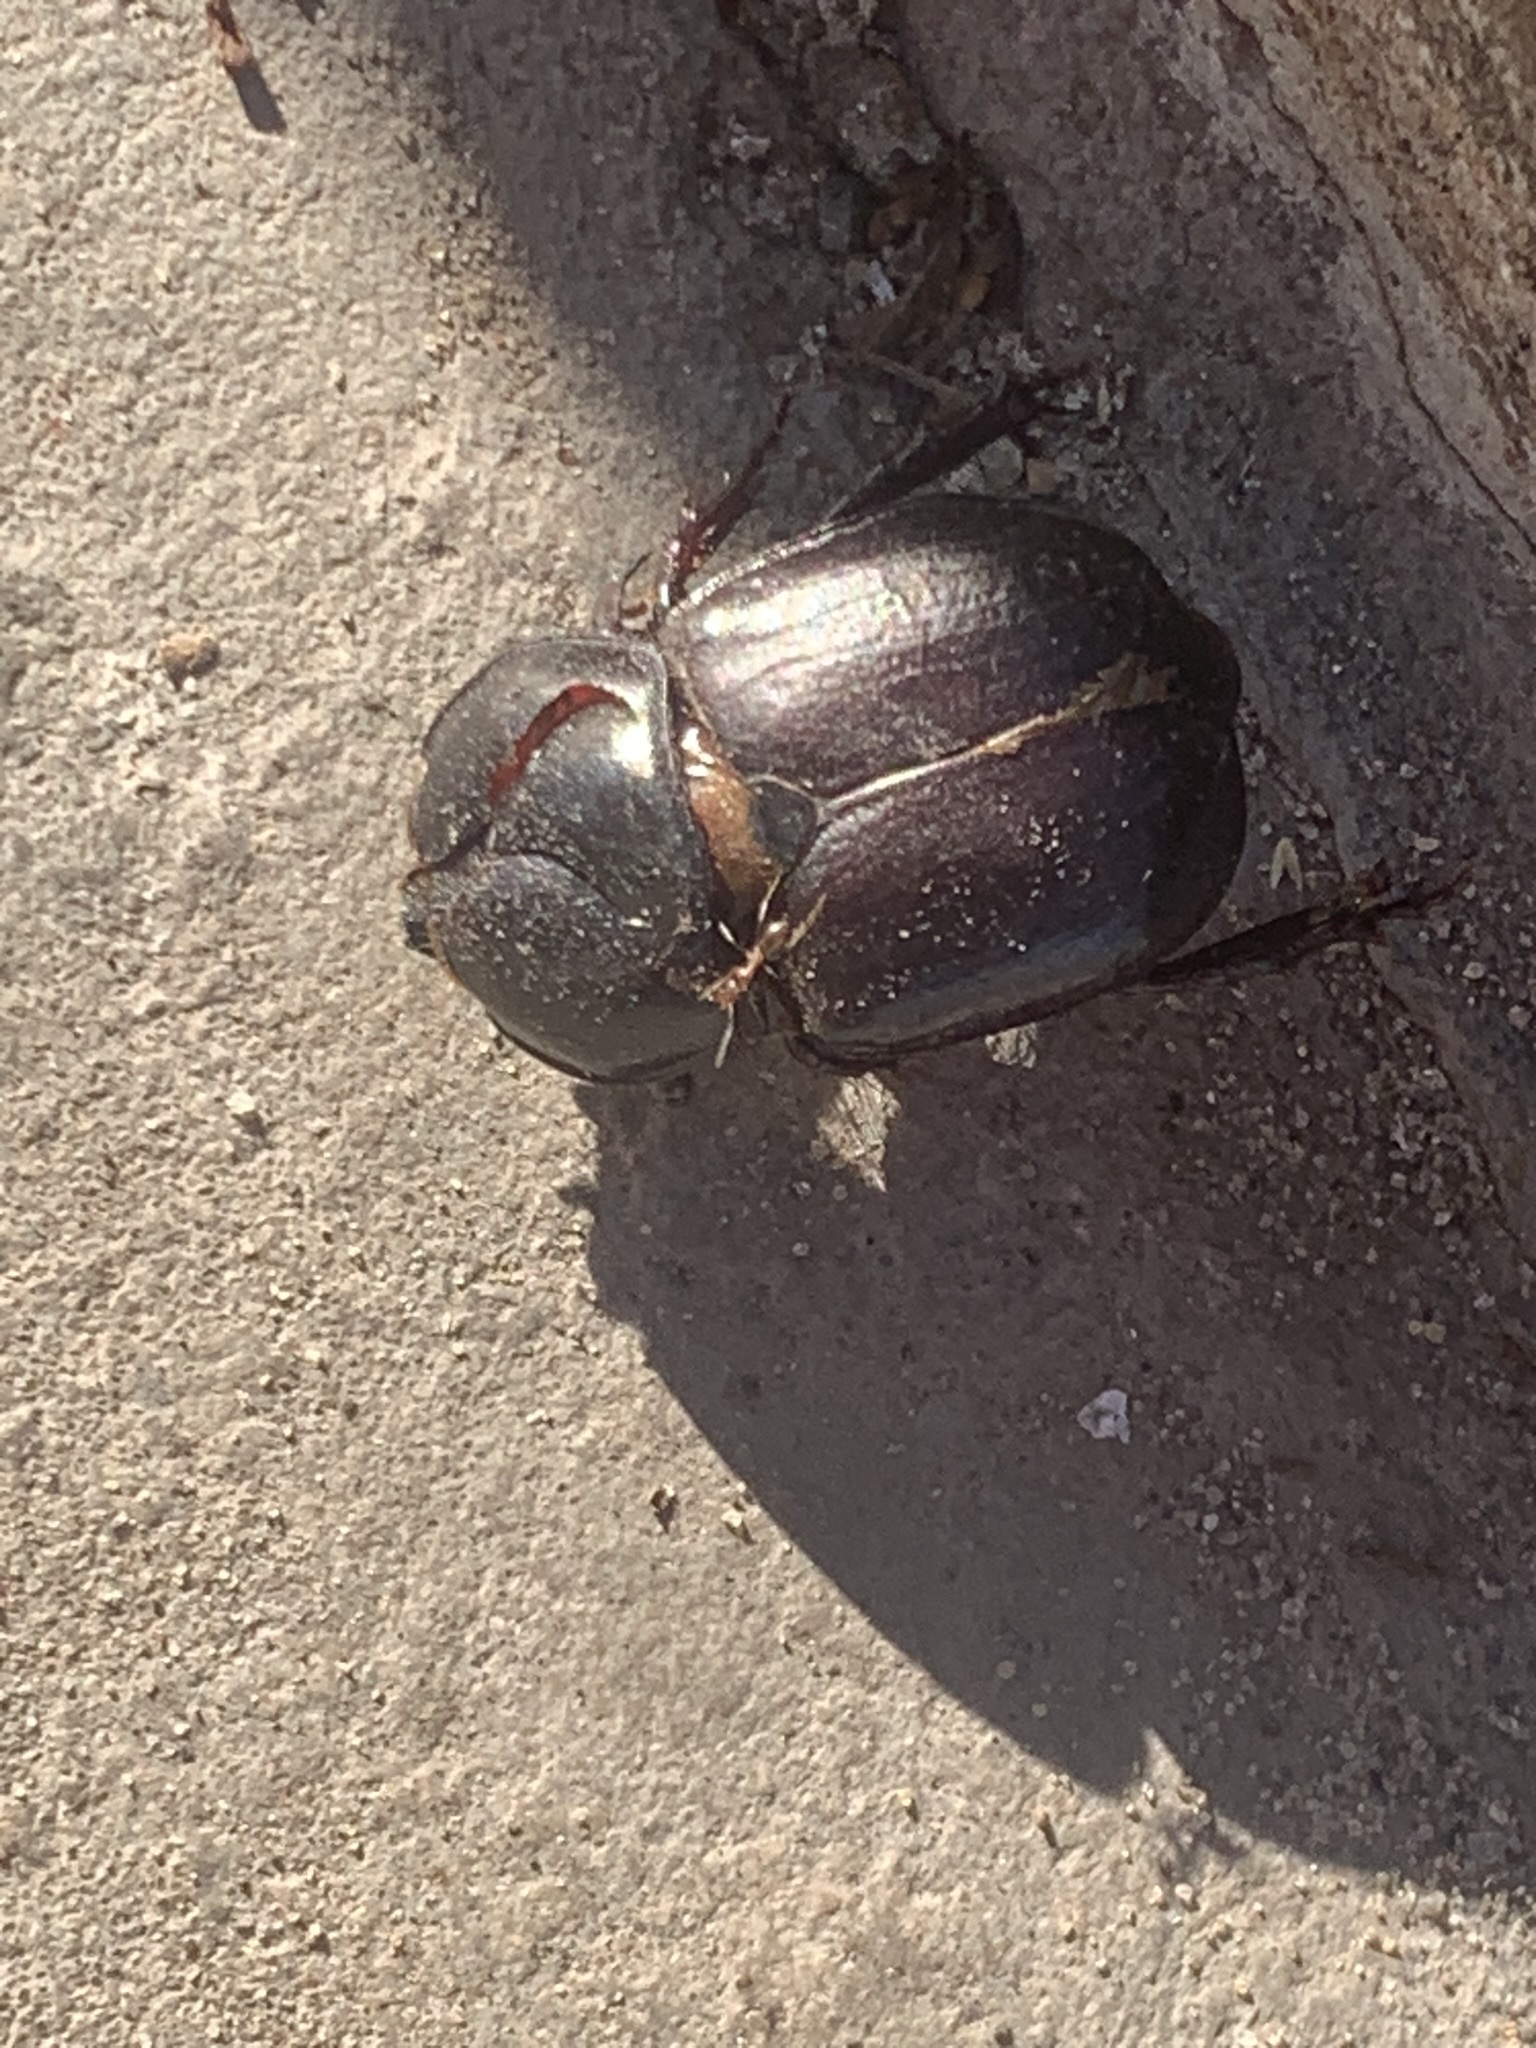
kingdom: Animalia
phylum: Arthropoda
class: Insecta
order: Coleoptera
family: Scarabaeidae
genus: Diloboderus
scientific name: Diloboderus abderus
